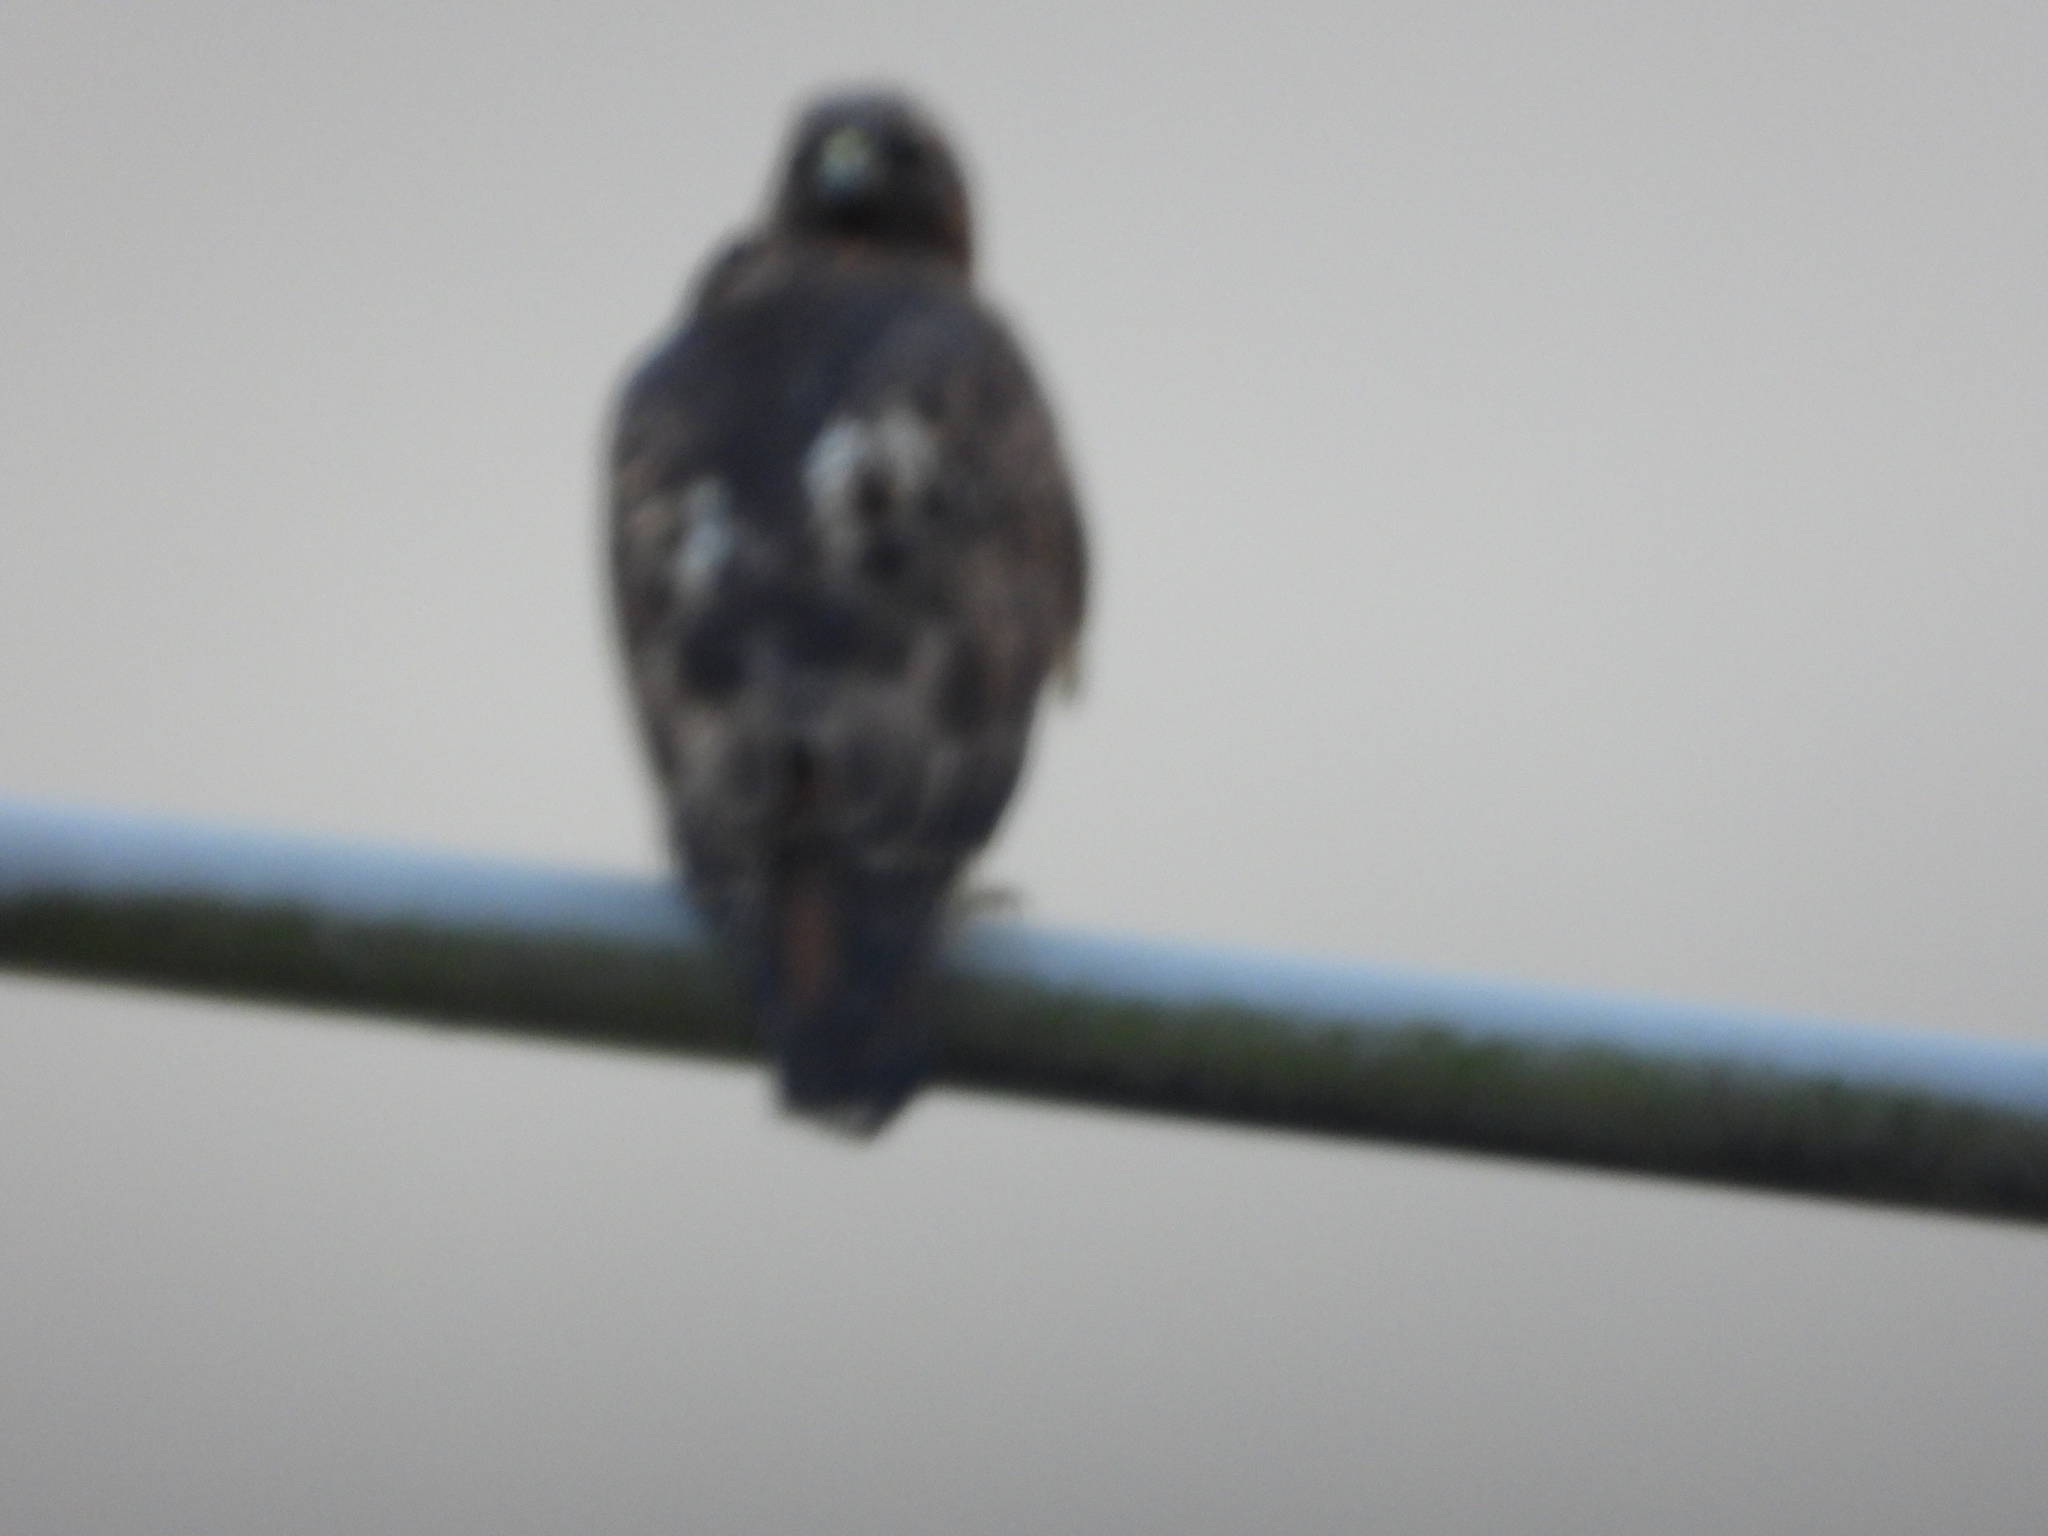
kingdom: Animalia
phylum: Chordata
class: Aves
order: Accipitriformes
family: Accipitridae
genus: Buteo
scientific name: Buteo jamaicensis
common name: Red-tailed hawk
